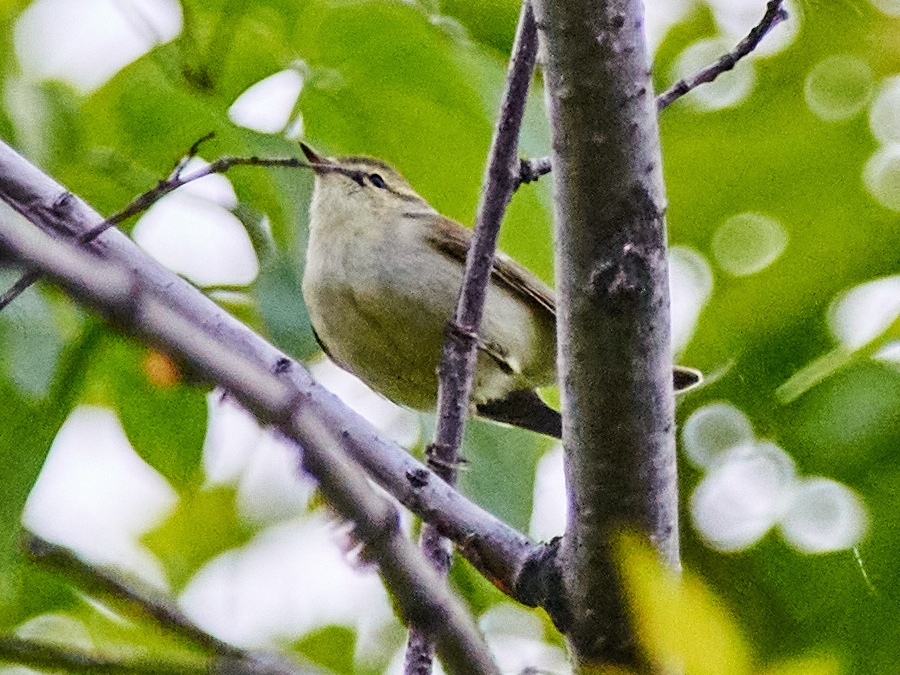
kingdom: Animalia
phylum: Chordata
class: Aves
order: Passeriformes
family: Phylloscopidae
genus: Phylloscopus
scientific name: Phylloscopus trochiloides
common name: Greenish warbler
